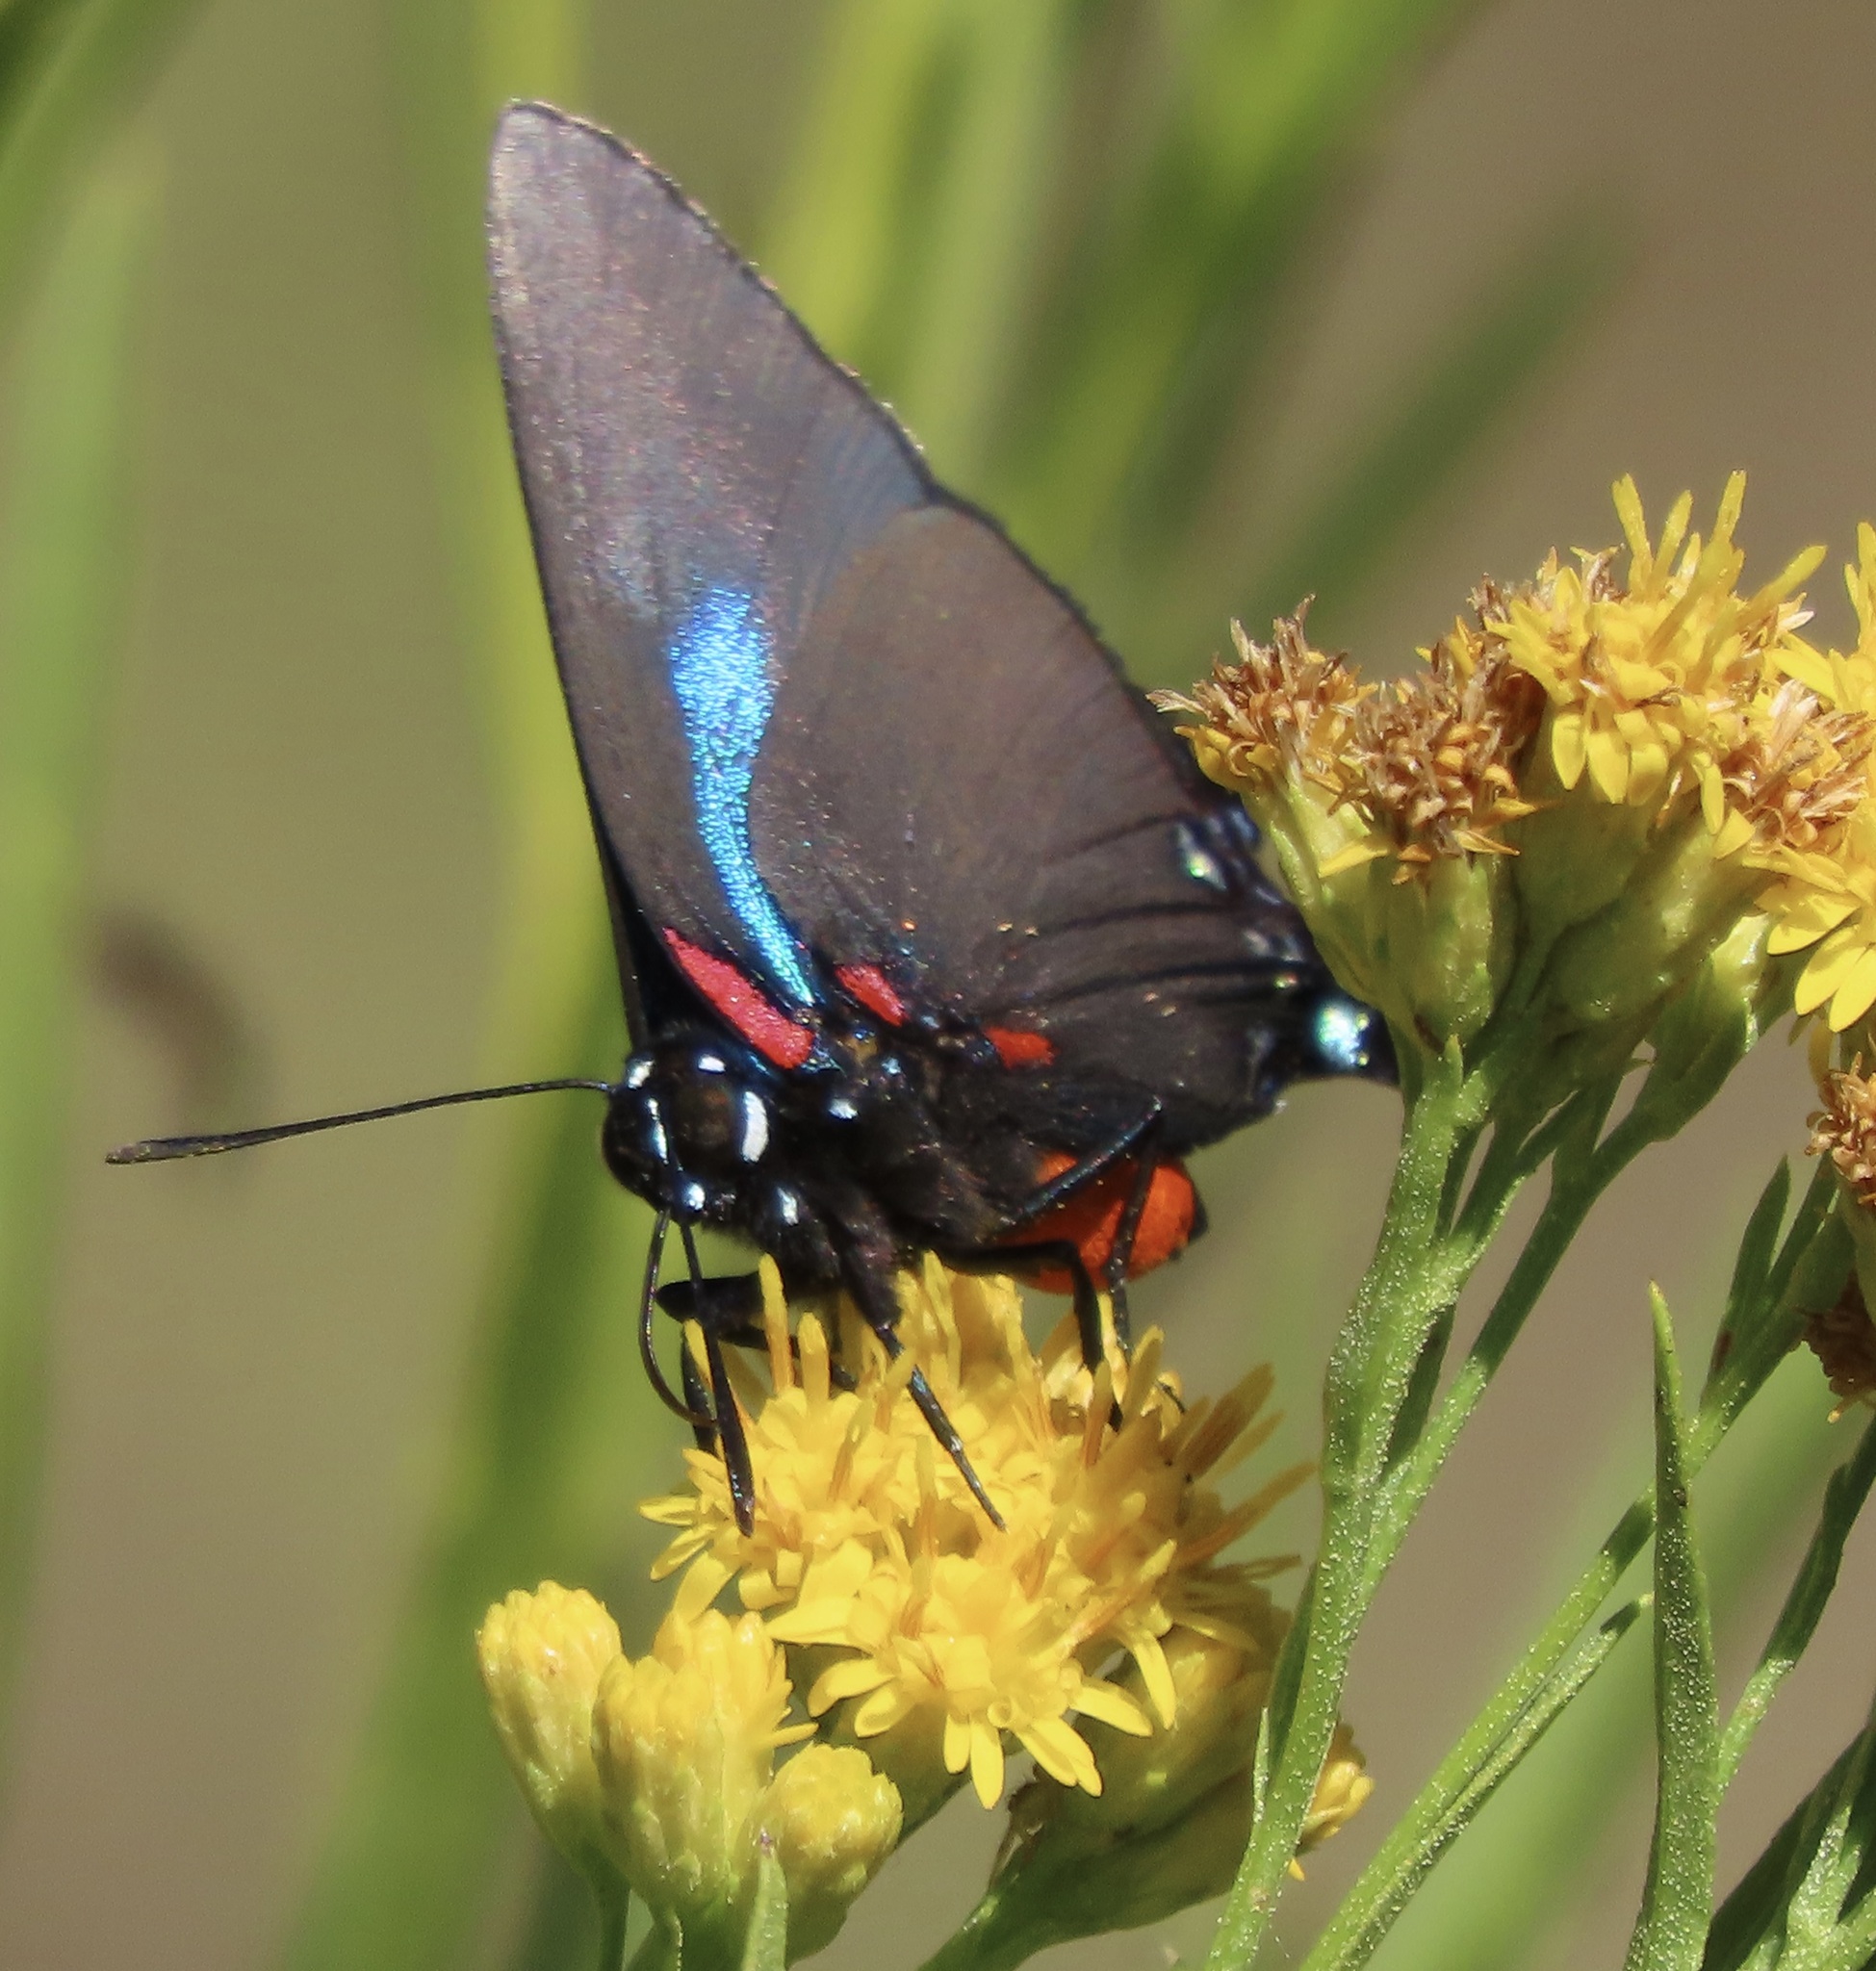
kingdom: Animalia
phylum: Arthropoda
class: Insecta
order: Lepidoptera
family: Lycaenidae
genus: Atlides
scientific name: Atlides halesus
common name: Great purple hairstreak
